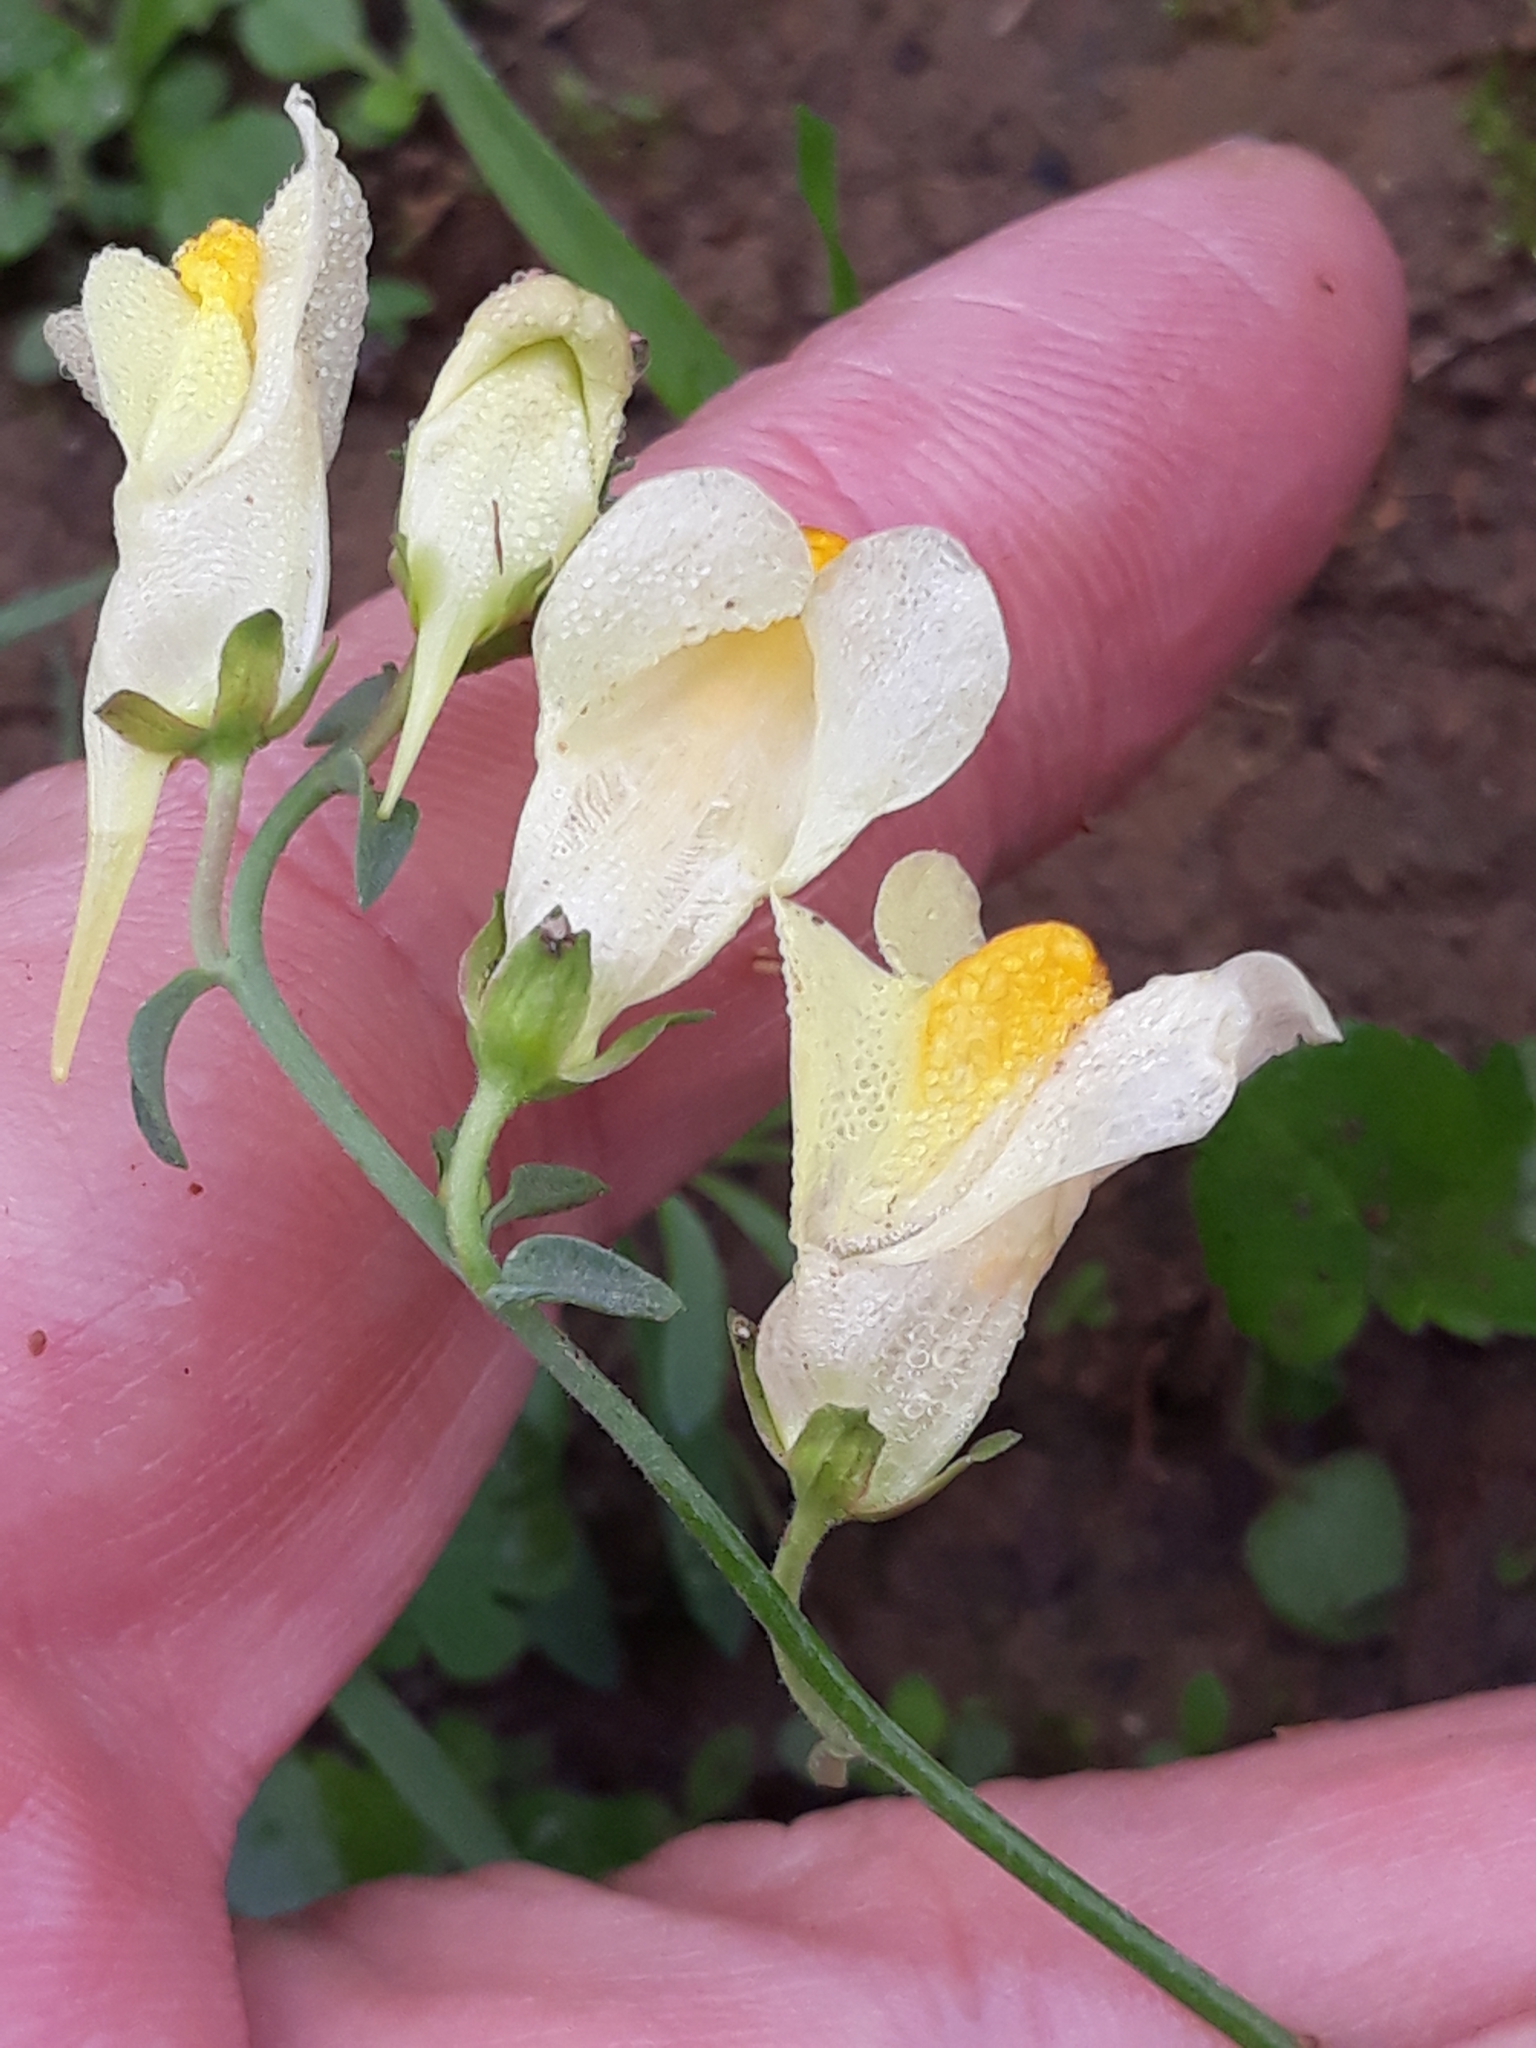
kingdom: Plantae
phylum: Tracheophyta
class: Magnoliopsida
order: Lamiales
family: Plantaginaceae
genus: Linaria
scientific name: Linaria vulgaris
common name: Butter and eggs
